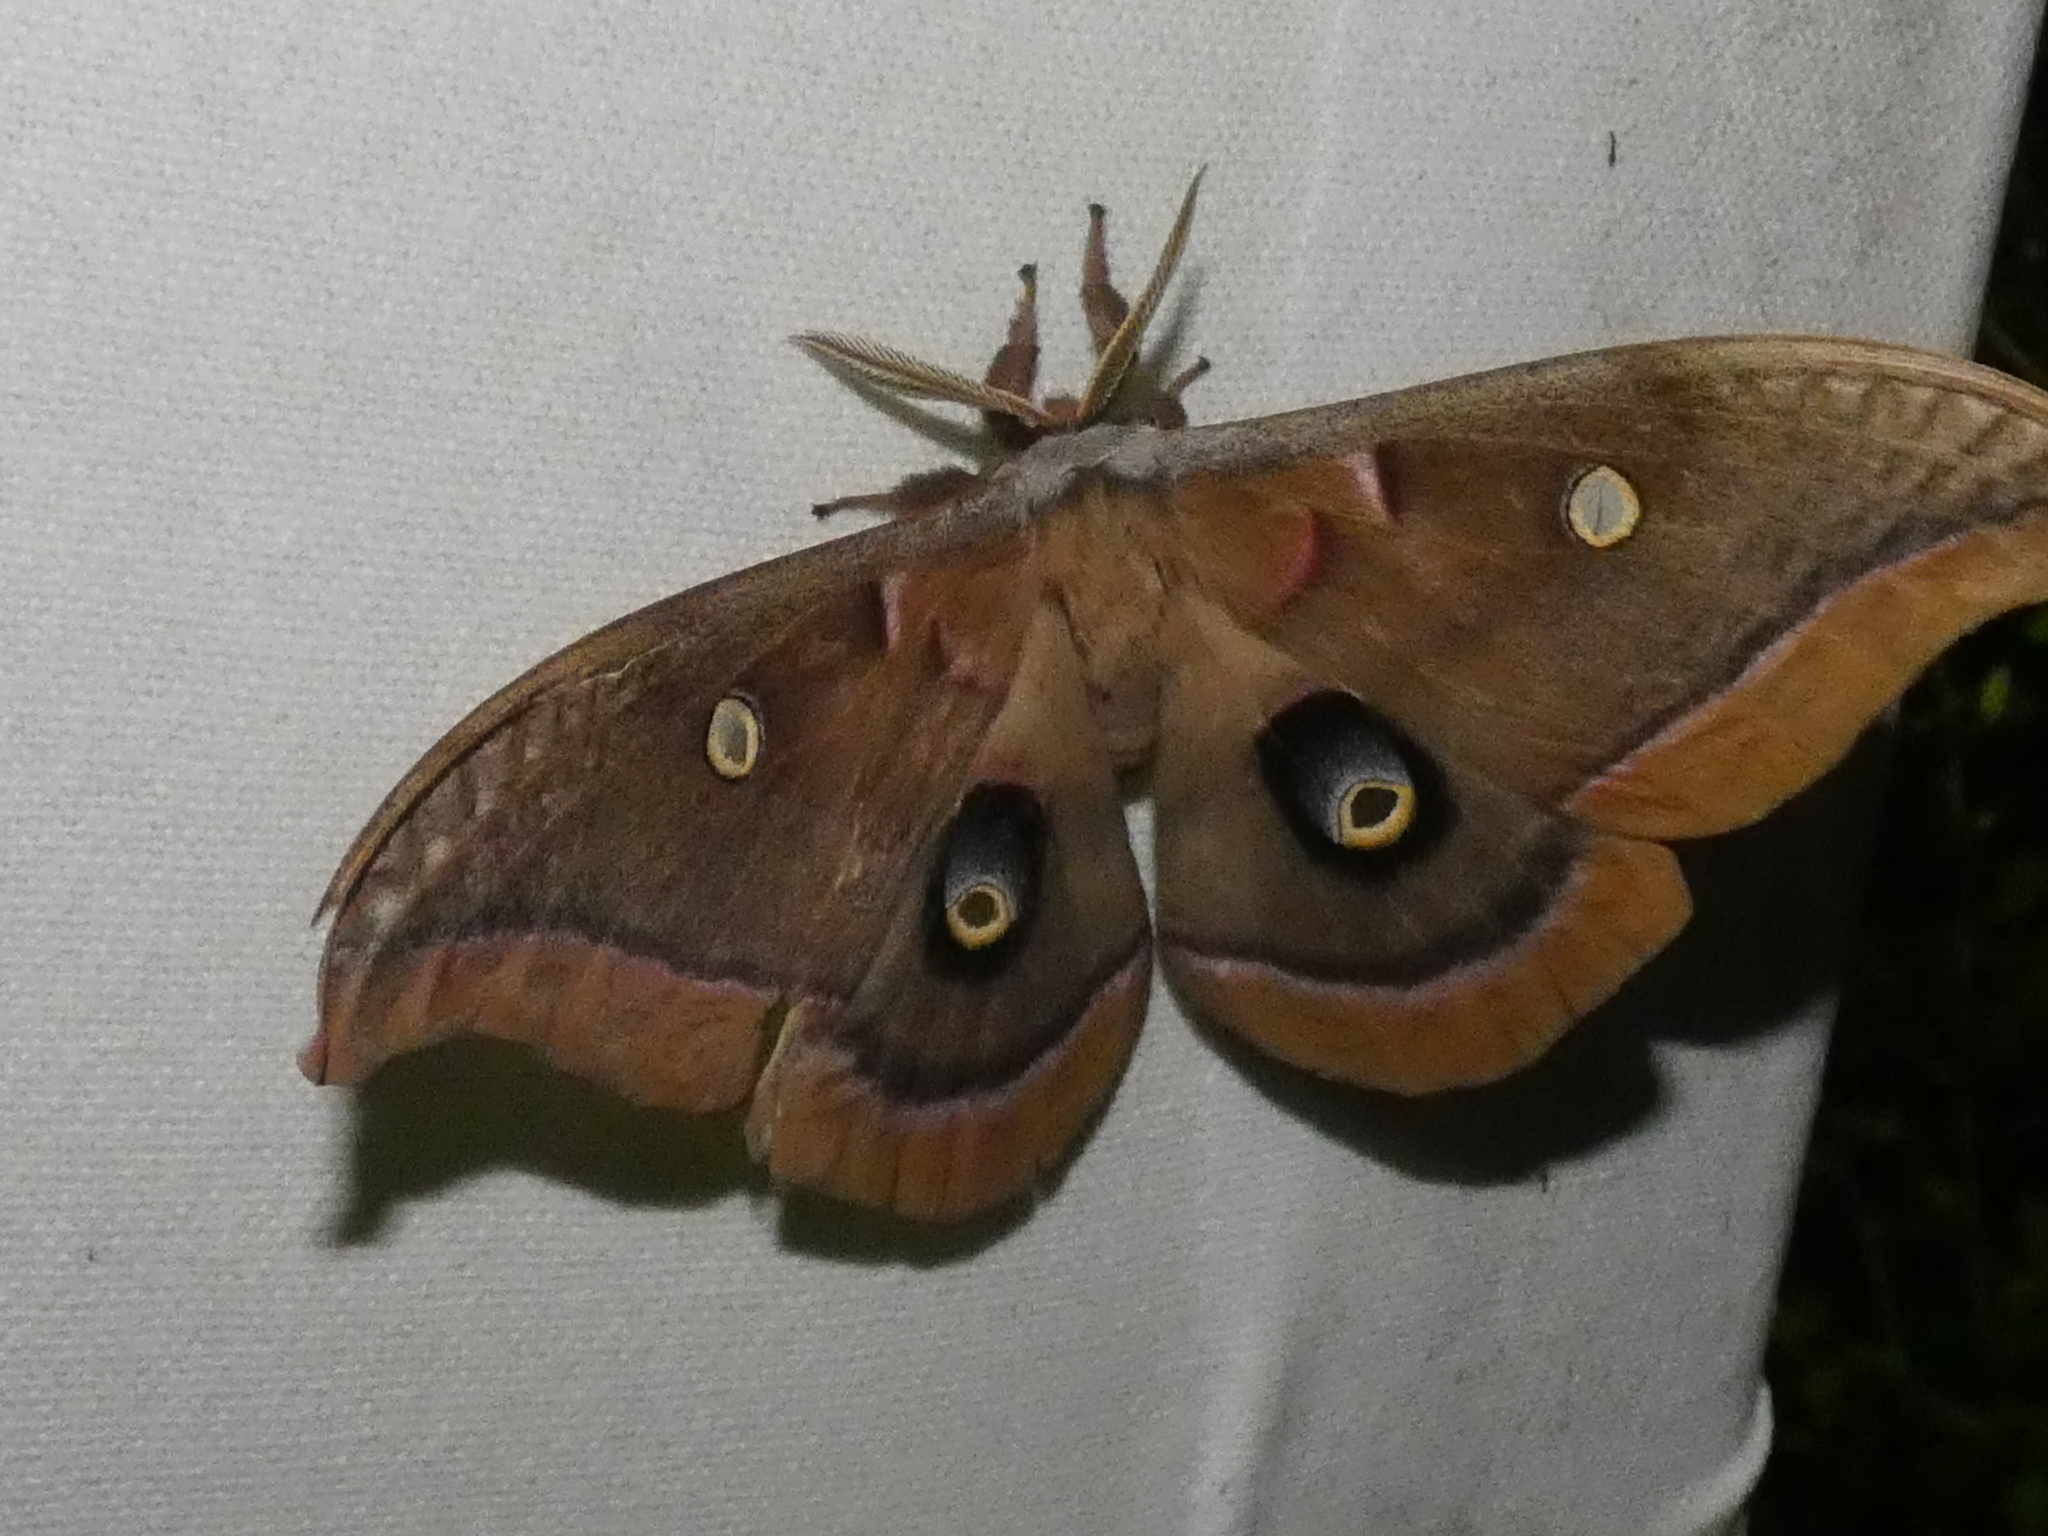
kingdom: Animalia
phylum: Arthropoda
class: Insecta
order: Lepidoptera
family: Saturniidae
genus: Antheraea
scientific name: Antheraea polyphemus
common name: Polyphemus moth
